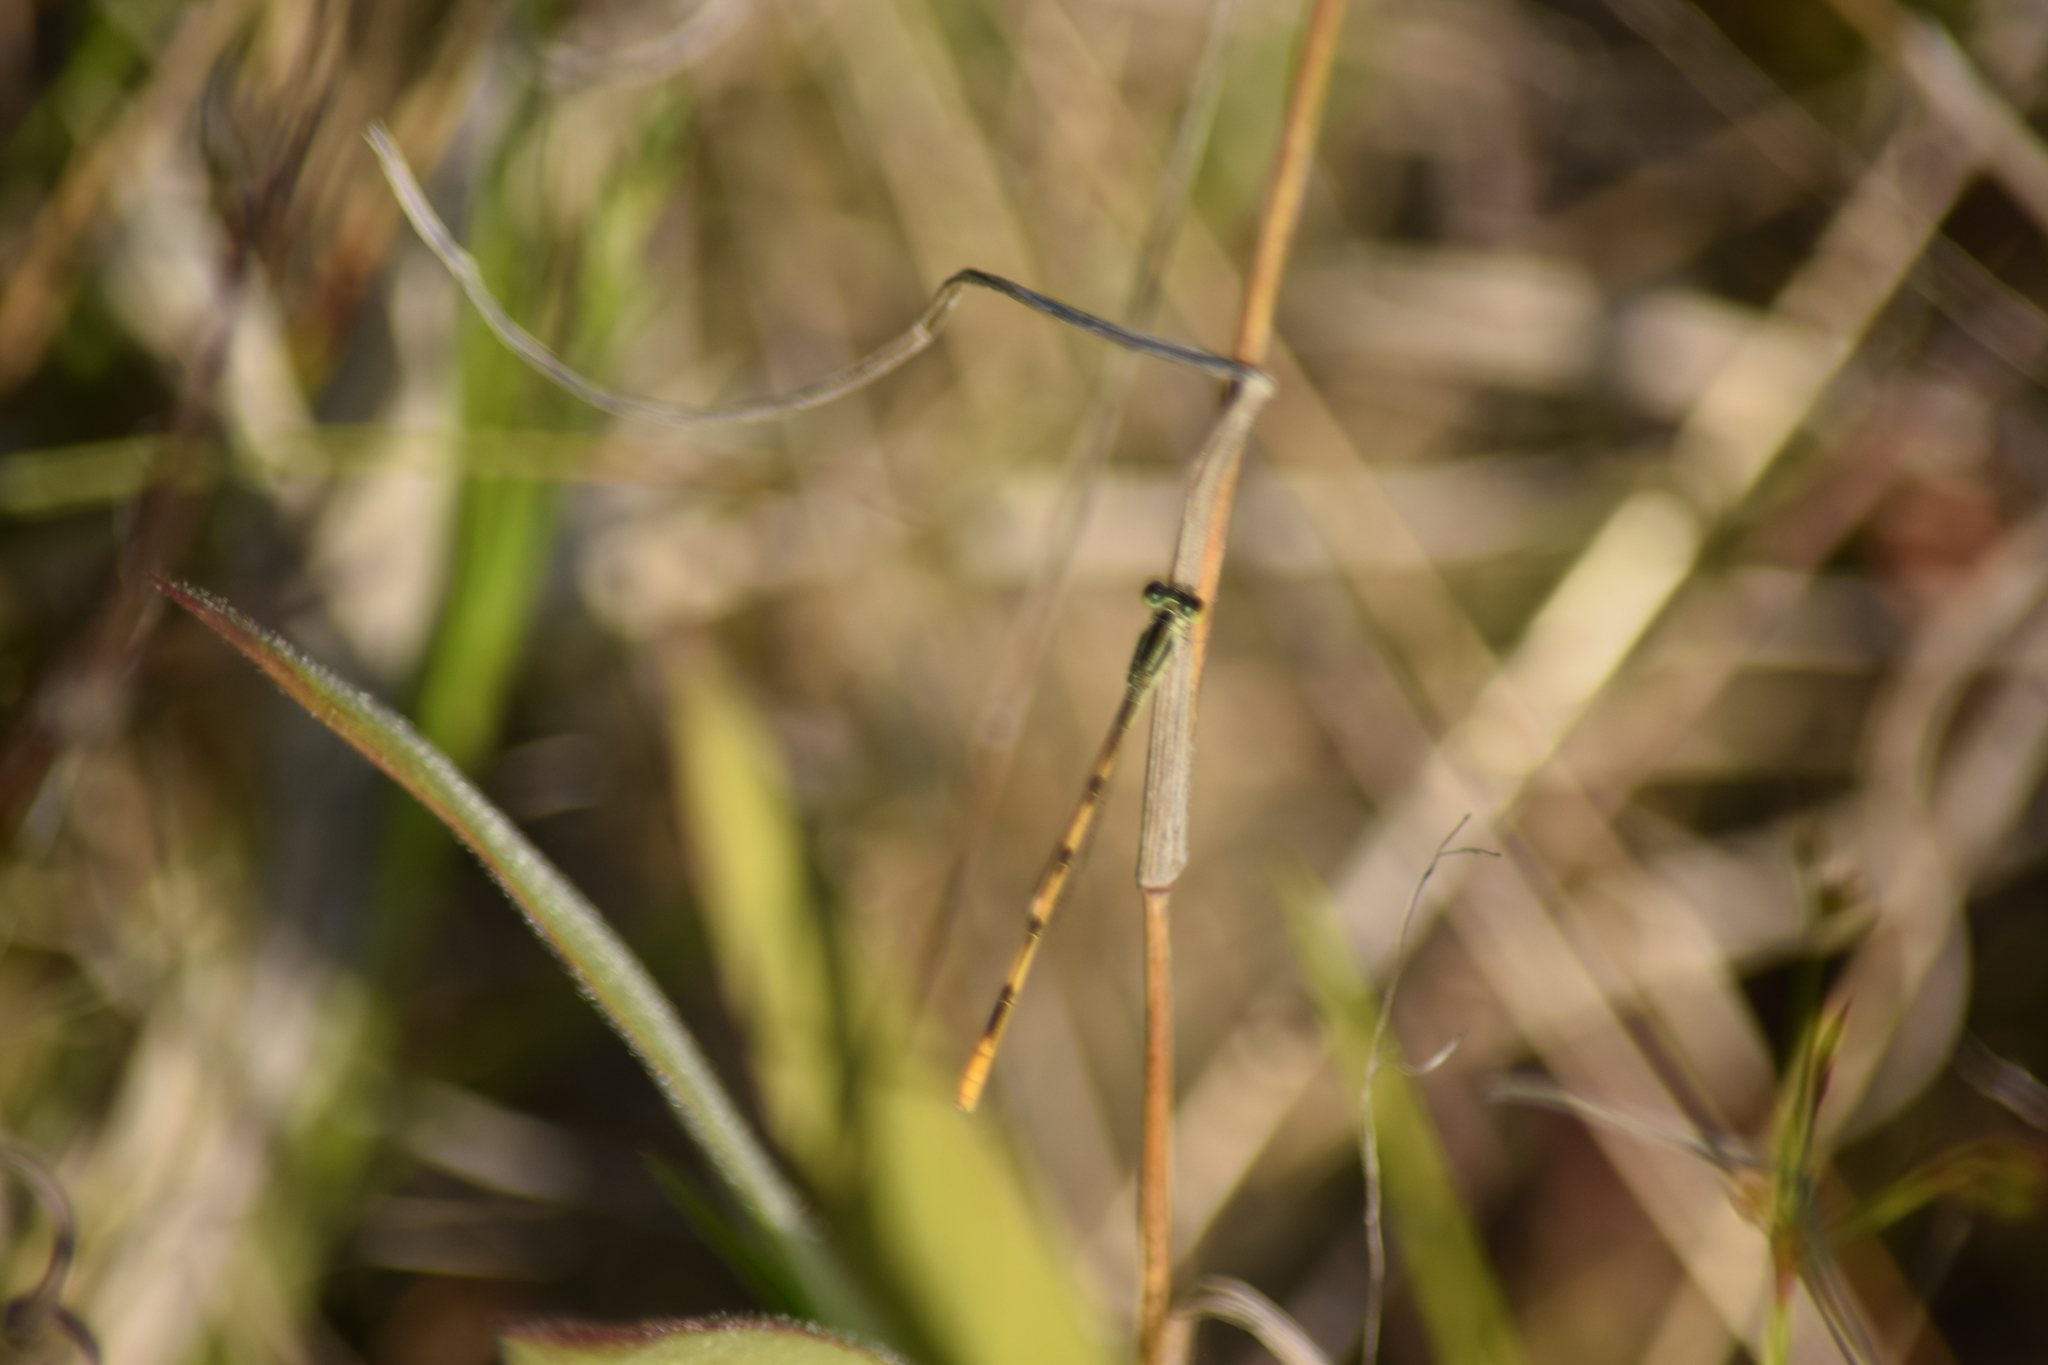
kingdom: Animalia
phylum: Arthropoda
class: Insecta
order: Odonata
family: Coenagrionidae
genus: Ischnura
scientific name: Ischnura hastata
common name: Citrine forktail
